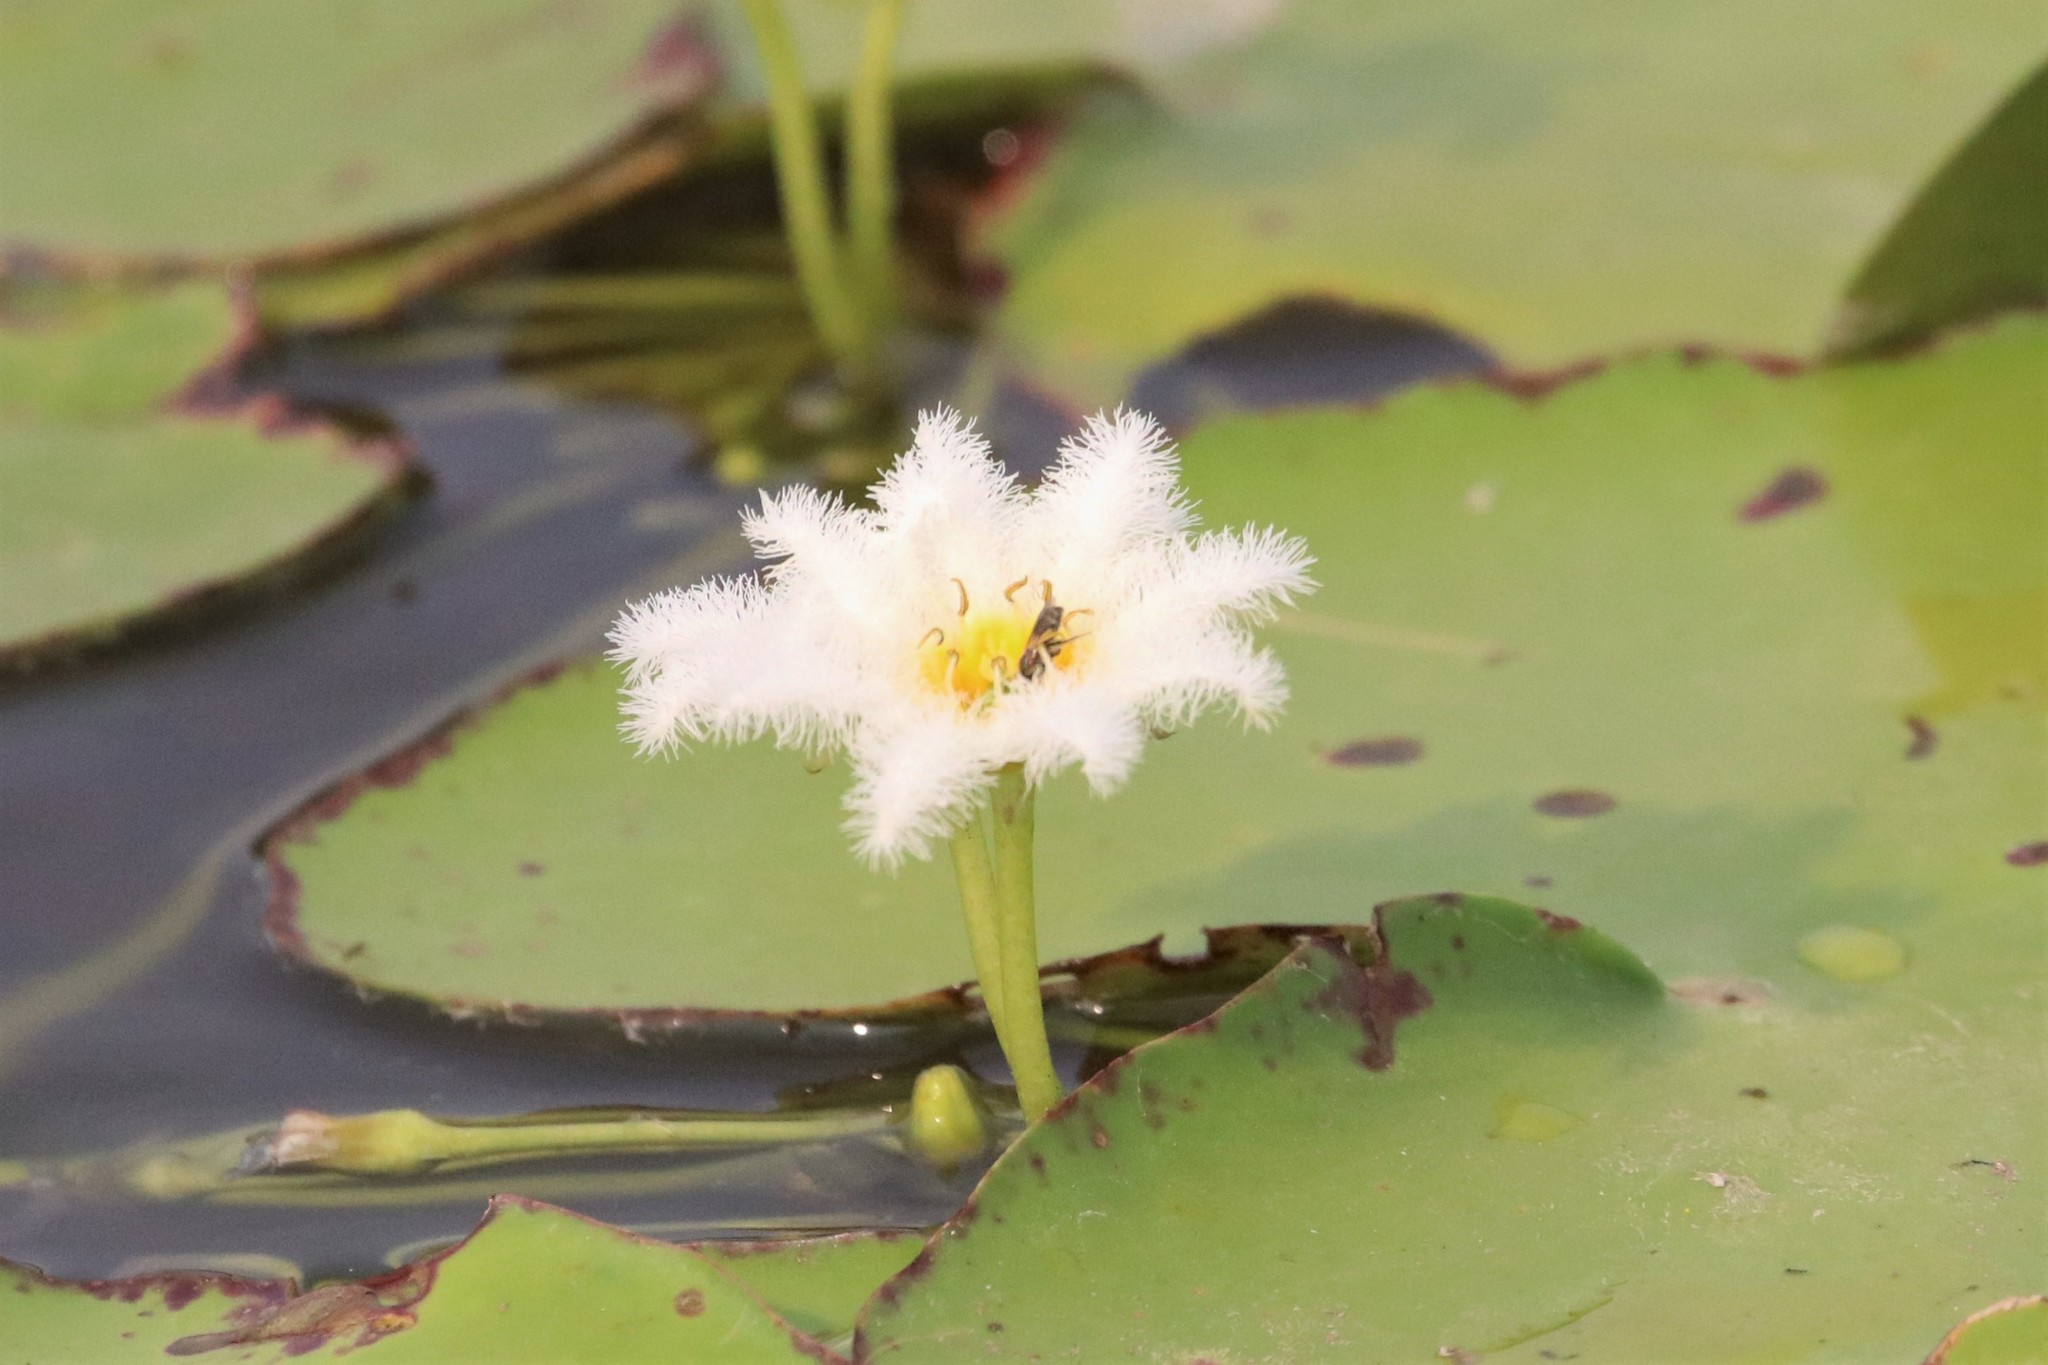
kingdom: Plantae
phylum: Tracheophyta
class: Magnoliopsida
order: Asterales
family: Menyanthaceae
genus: Nymphoides
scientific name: Nymphoides indica
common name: Water-snowflake
